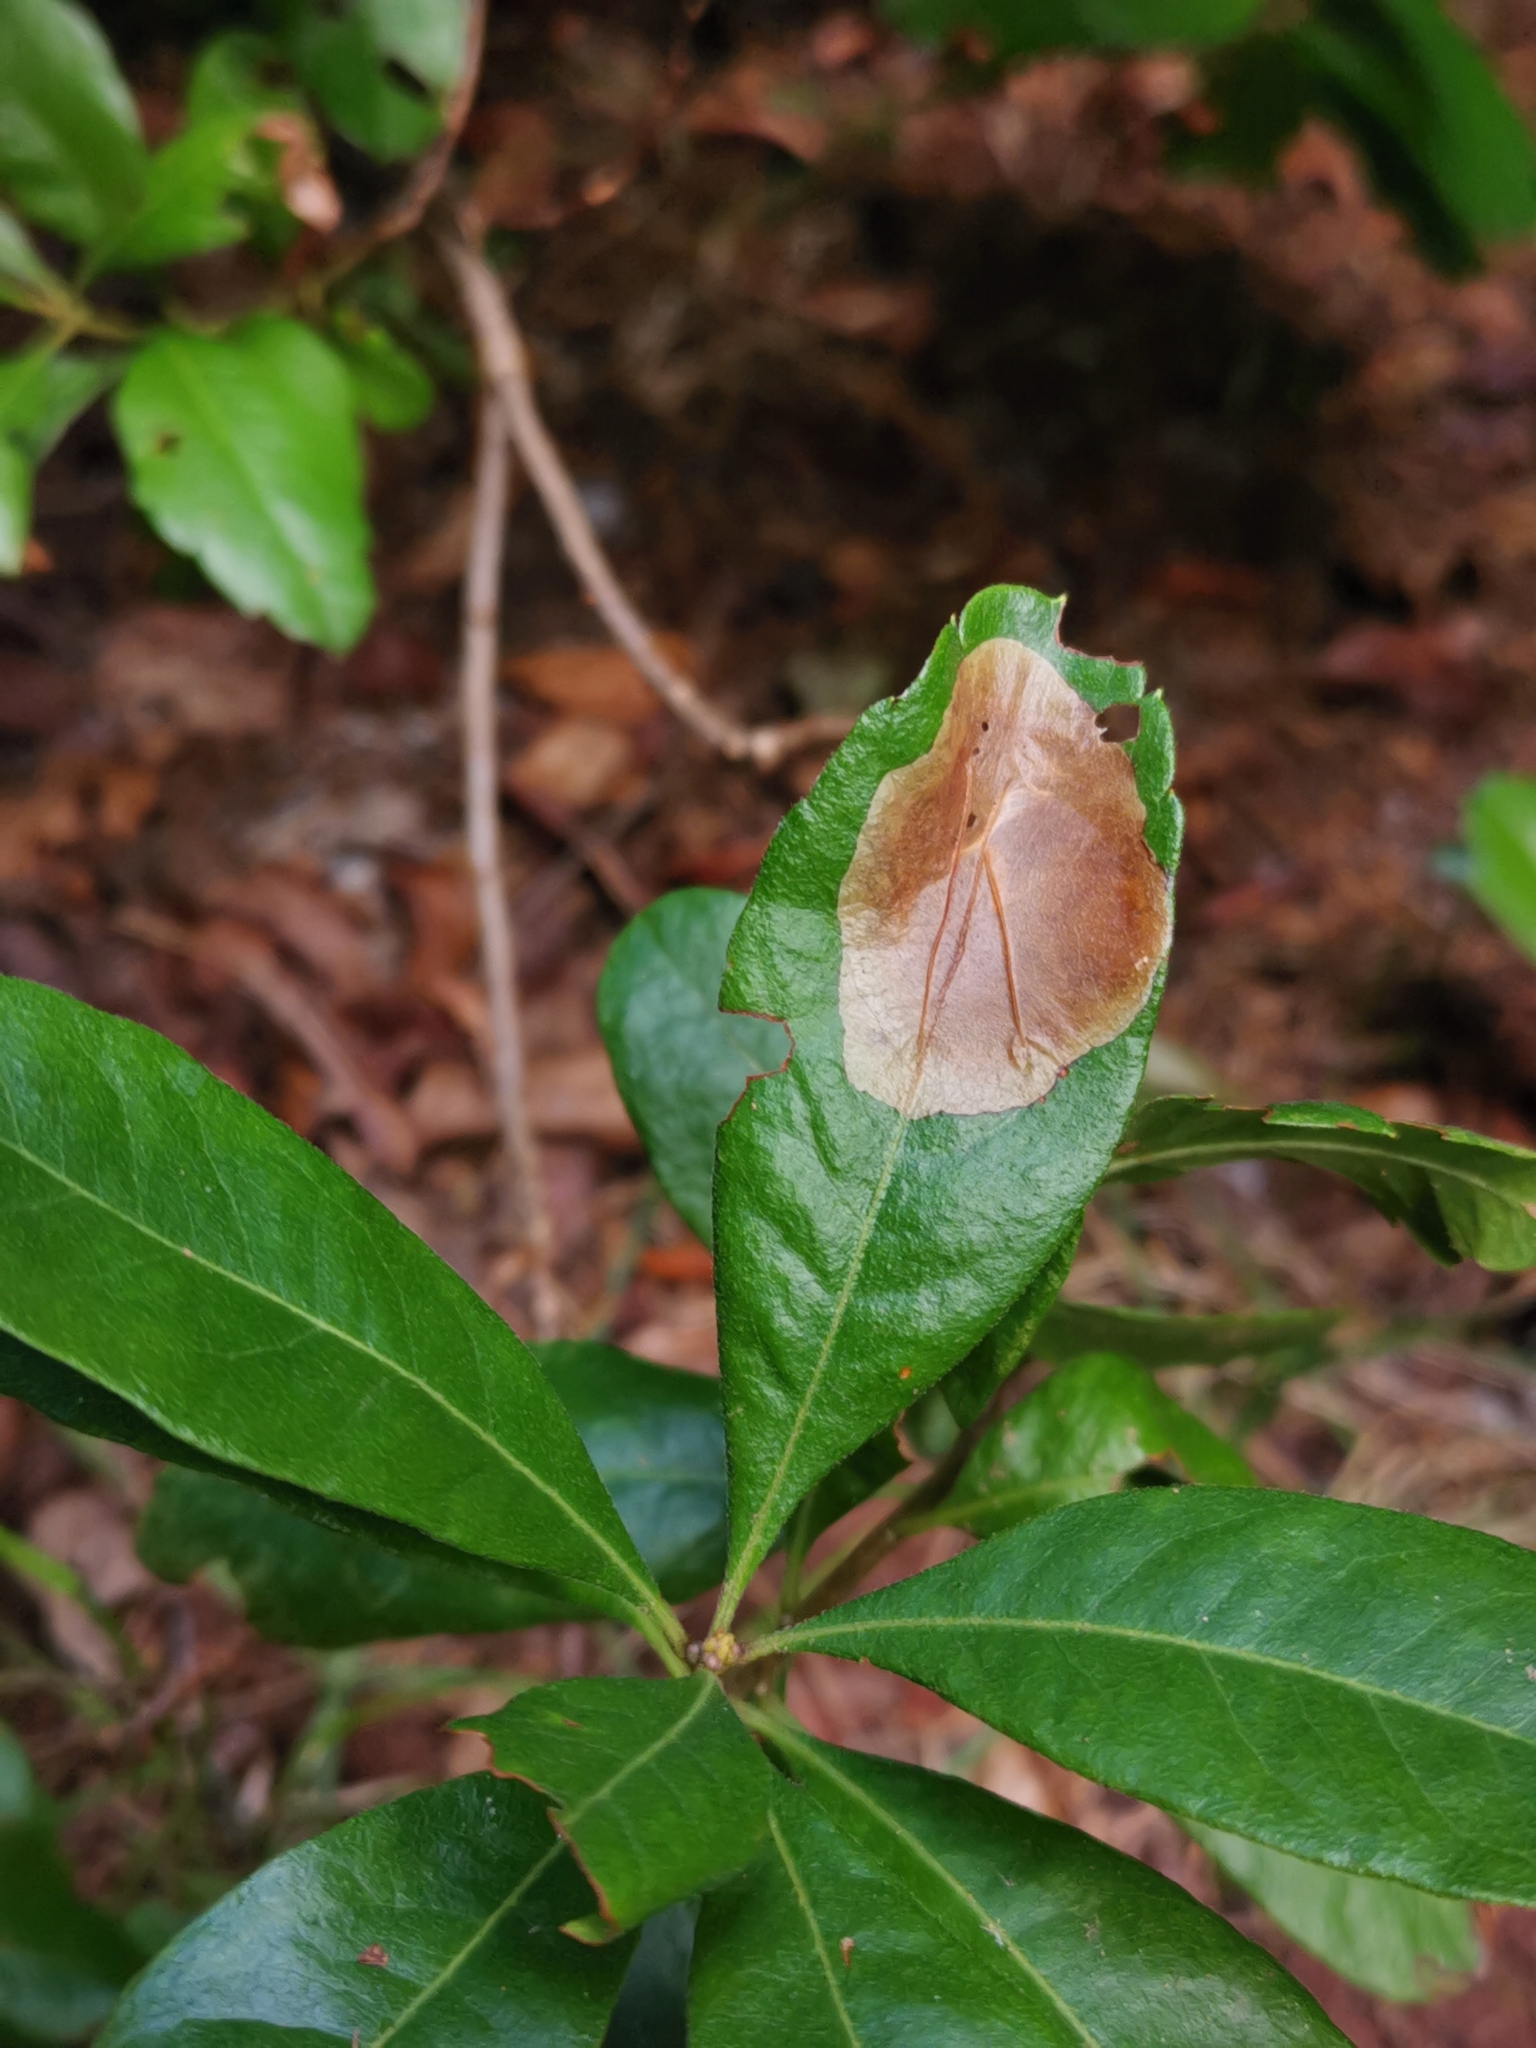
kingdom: Animalia
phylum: Arthropoda
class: Insecta
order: Lepidoptera
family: Gracillariidae
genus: Cameraria
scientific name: Cameraria picturatella
